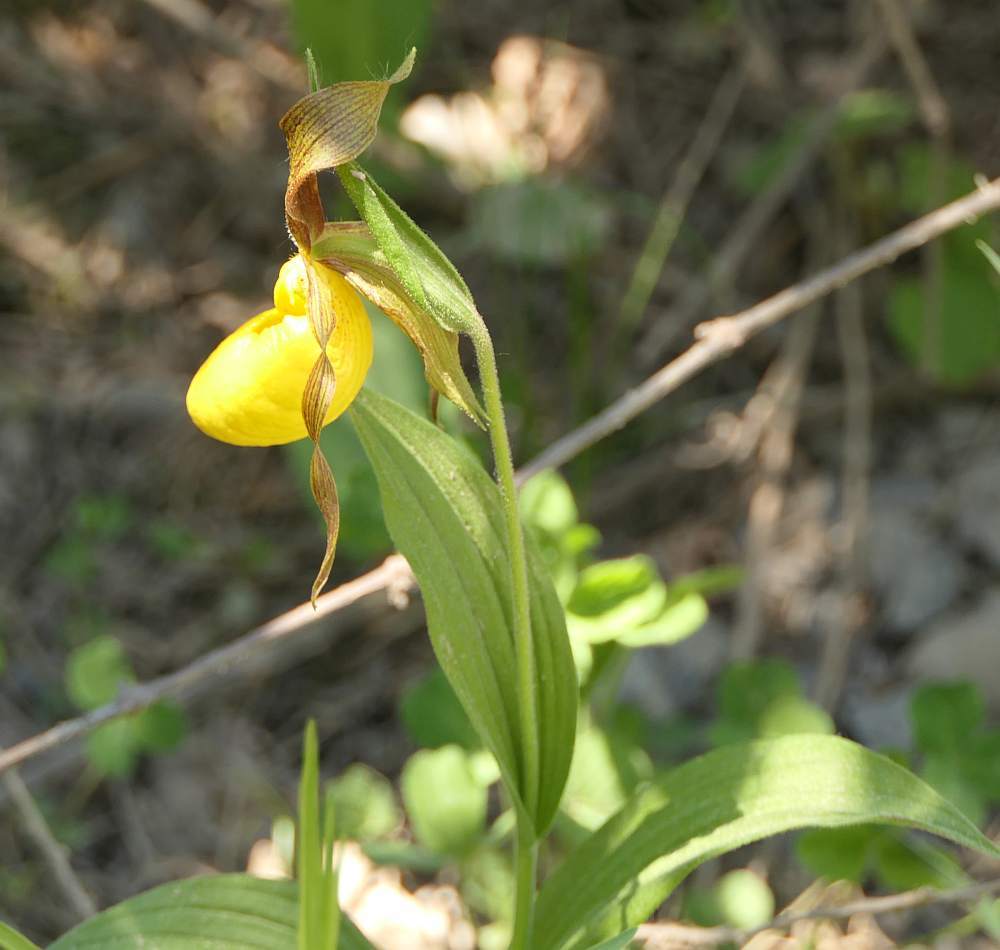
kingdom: Plantae
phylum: Tracheophyta
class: Liliopsida
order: Asparagales
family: Orchidaceae
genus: Cypripedium
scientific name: Cypripedium parviflorum
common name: American yellow lady's-slipper
